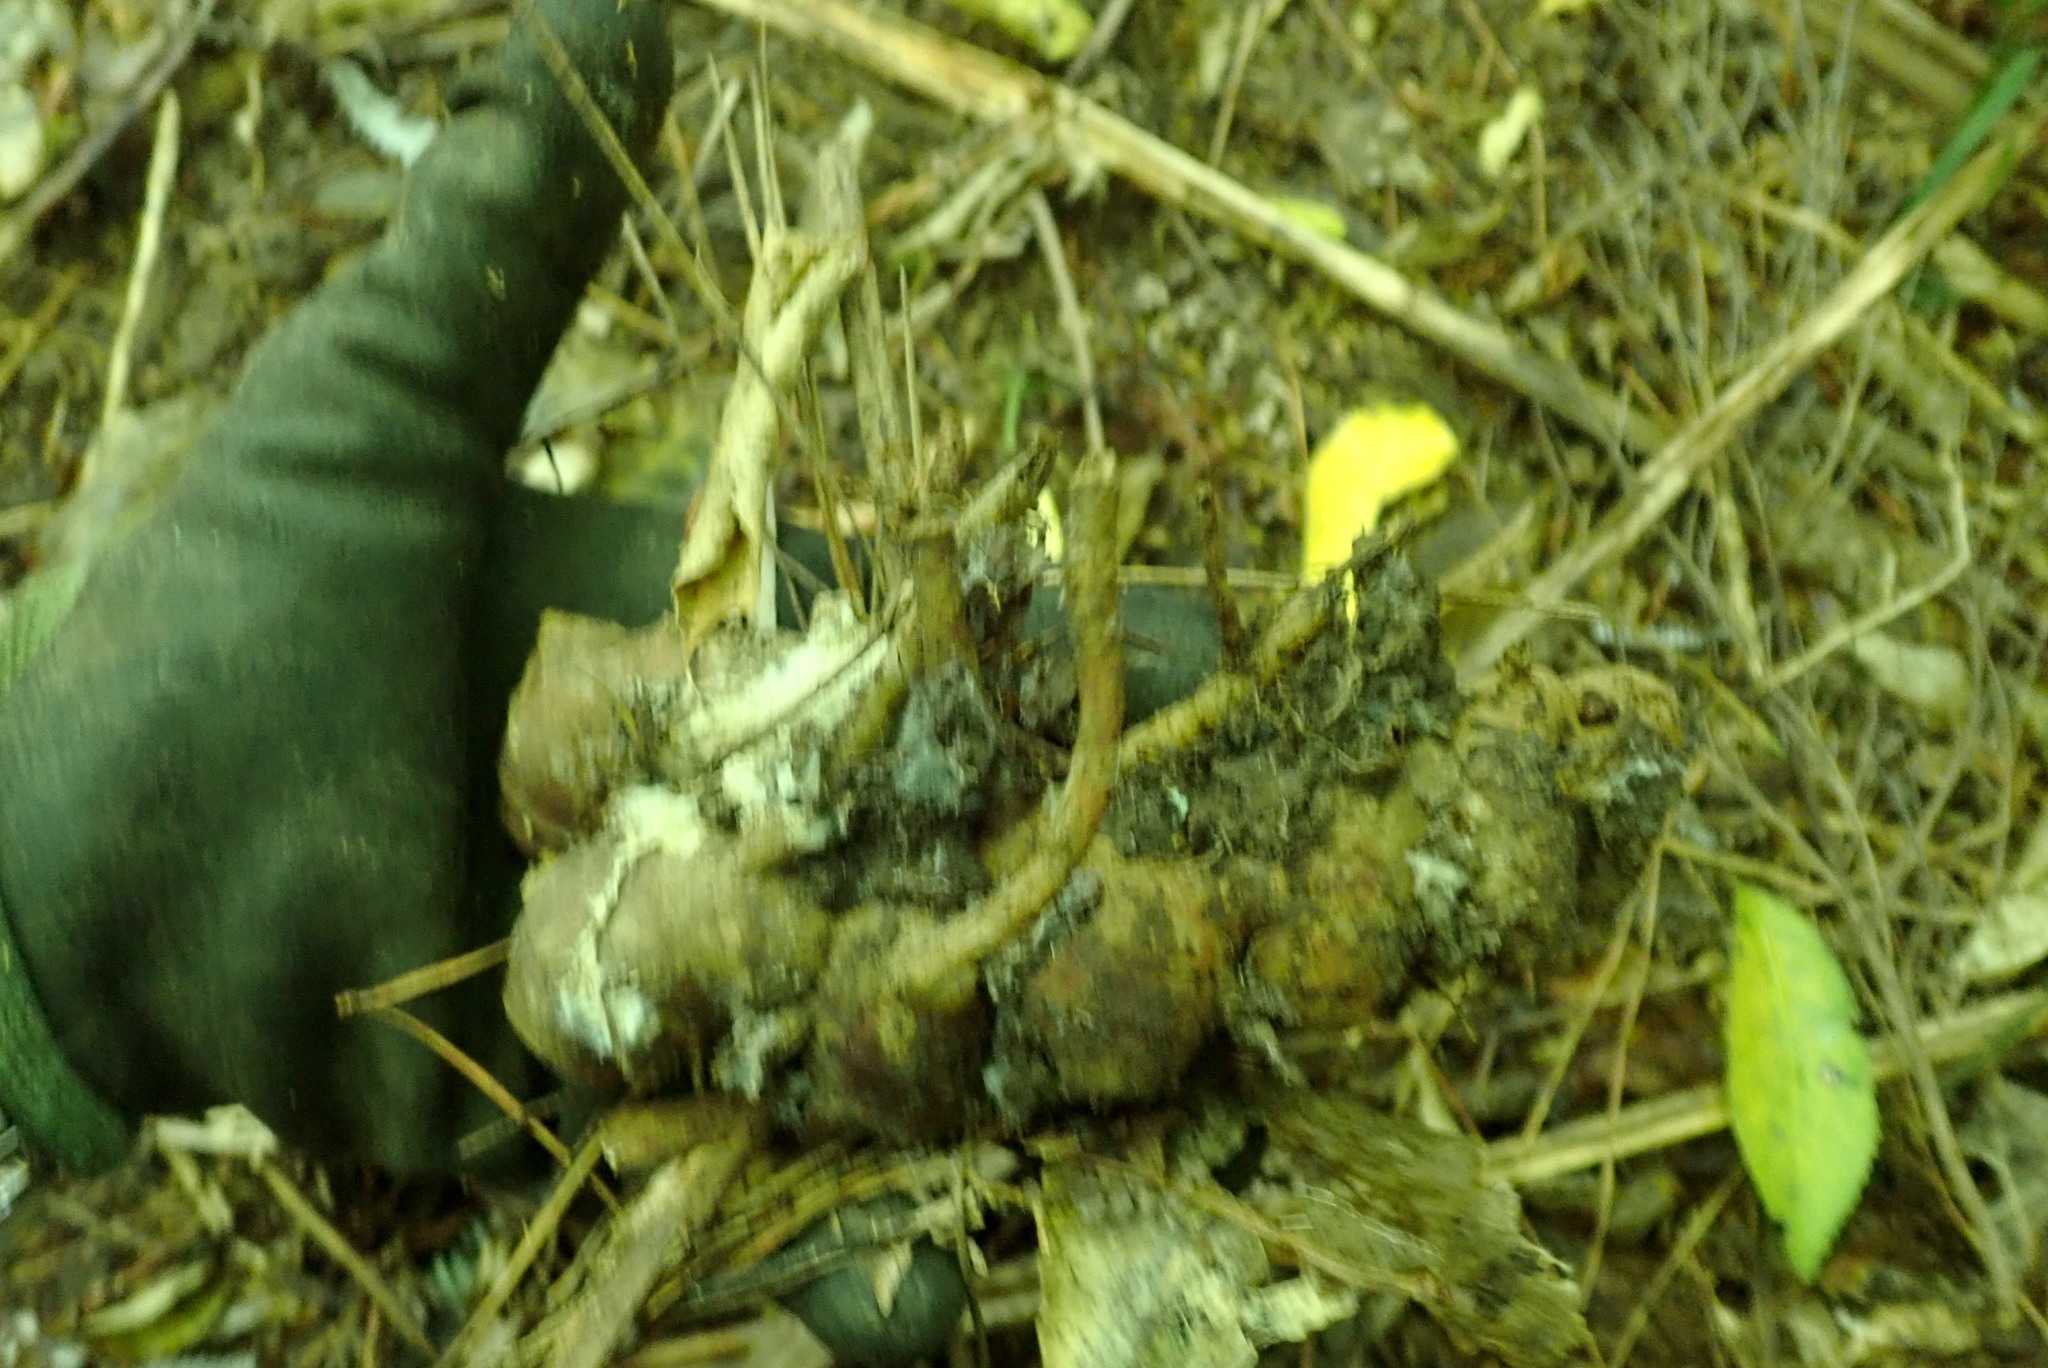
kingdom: Plantae
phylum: Tracheophyta
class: Liliopsida
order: Zingiberales
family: Zingiberaceae
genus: Hedychium
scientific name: Hedychium gardnerianum
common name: Himalayan ginger
